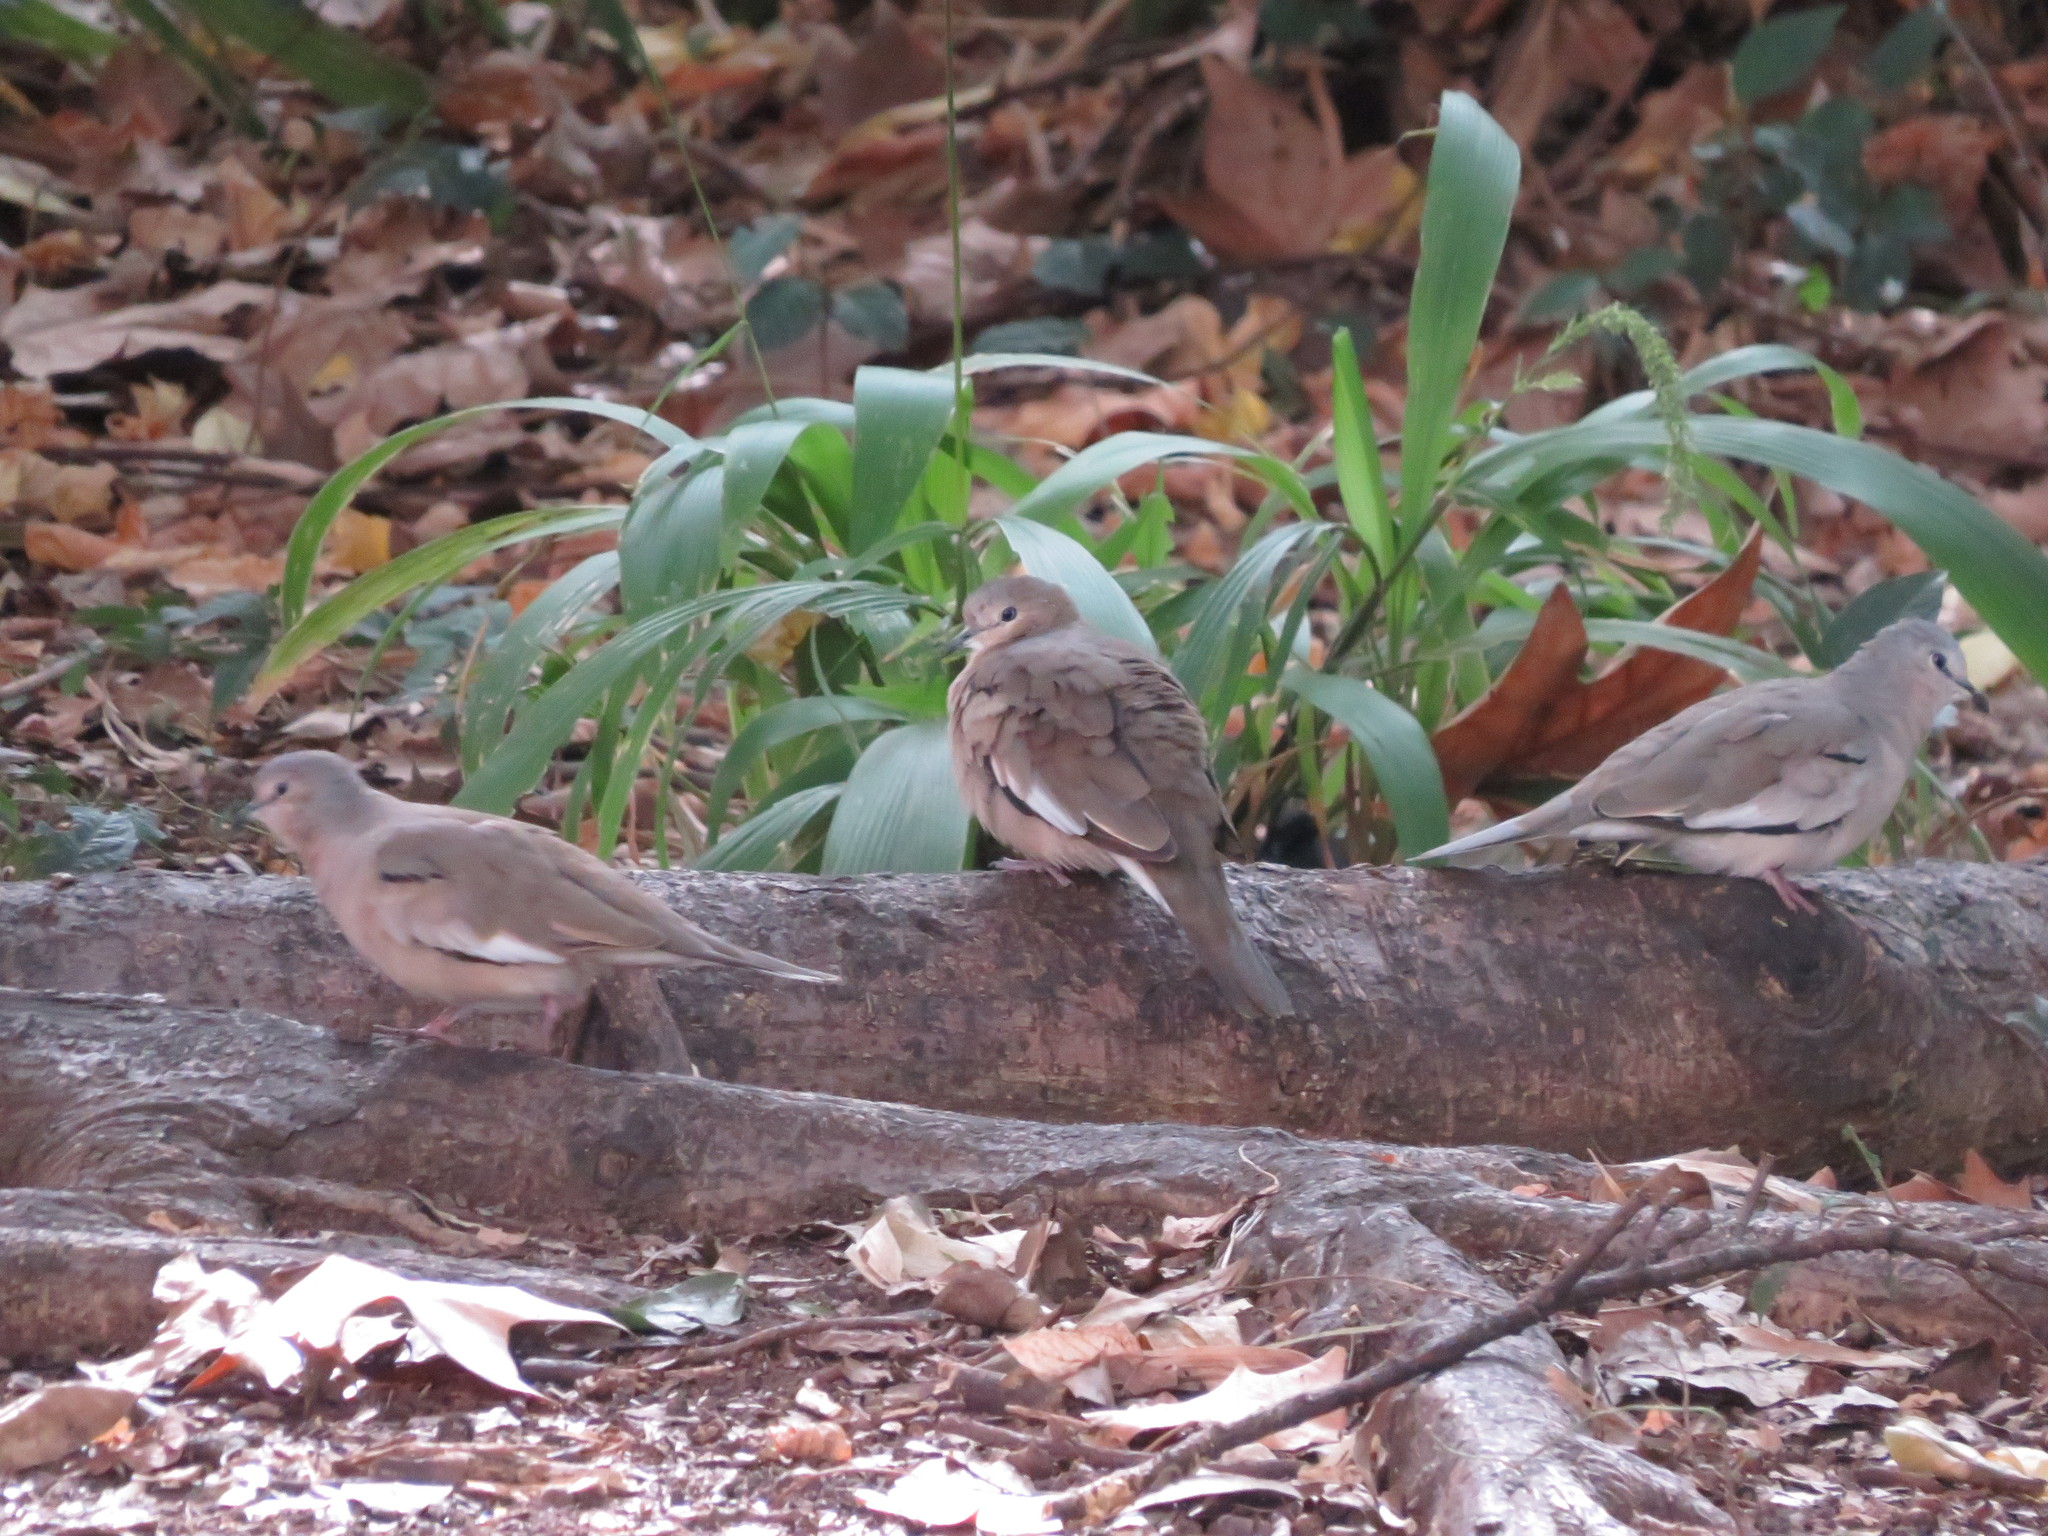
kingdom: Animalia
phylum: Chordata
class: Aves
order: Columbiformes
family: Columbidae
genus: Columbina
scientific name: Columbina picui
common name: Picui ground dove
